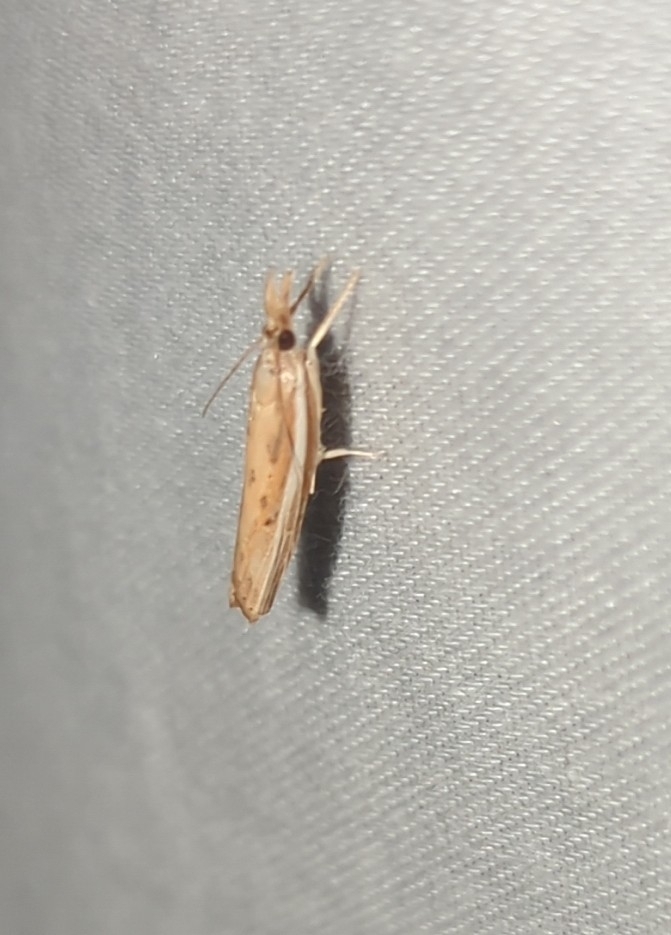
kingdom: Animalia
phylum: Arthropoda
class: Insecta
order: Lepidoptera
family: Crambidae
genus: Fissicrambus
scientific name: Fissicrambus fissiradiellus
